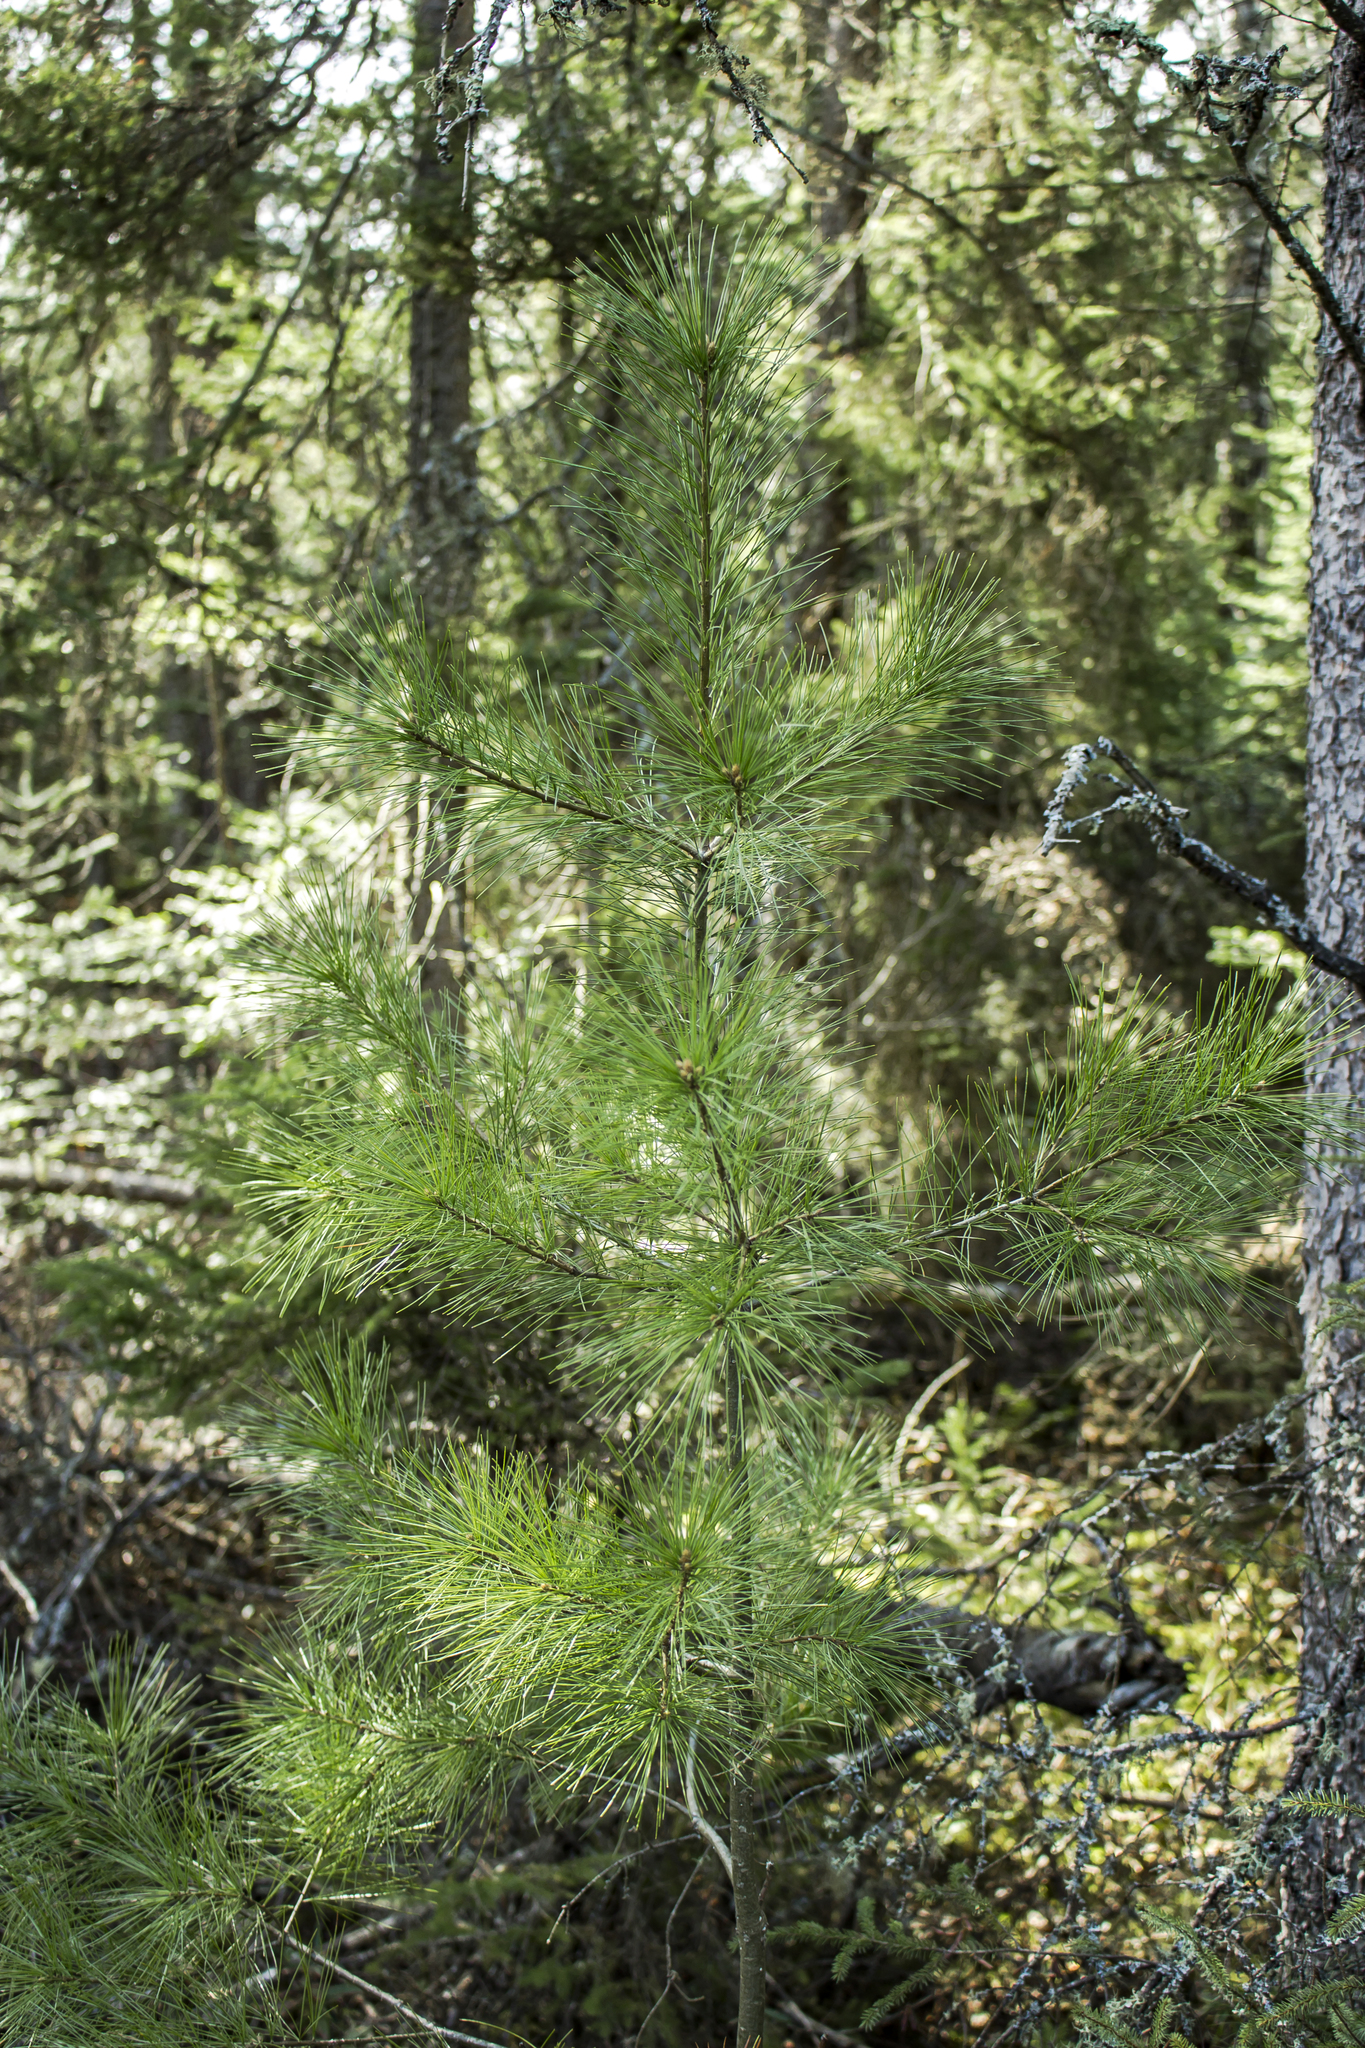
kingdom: Plantae
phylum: Tracheophyta
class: Pinopsida
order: Pinales
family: Pinaceae
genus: Pinus
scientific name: Pinus strobus
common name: Weymouth pine
